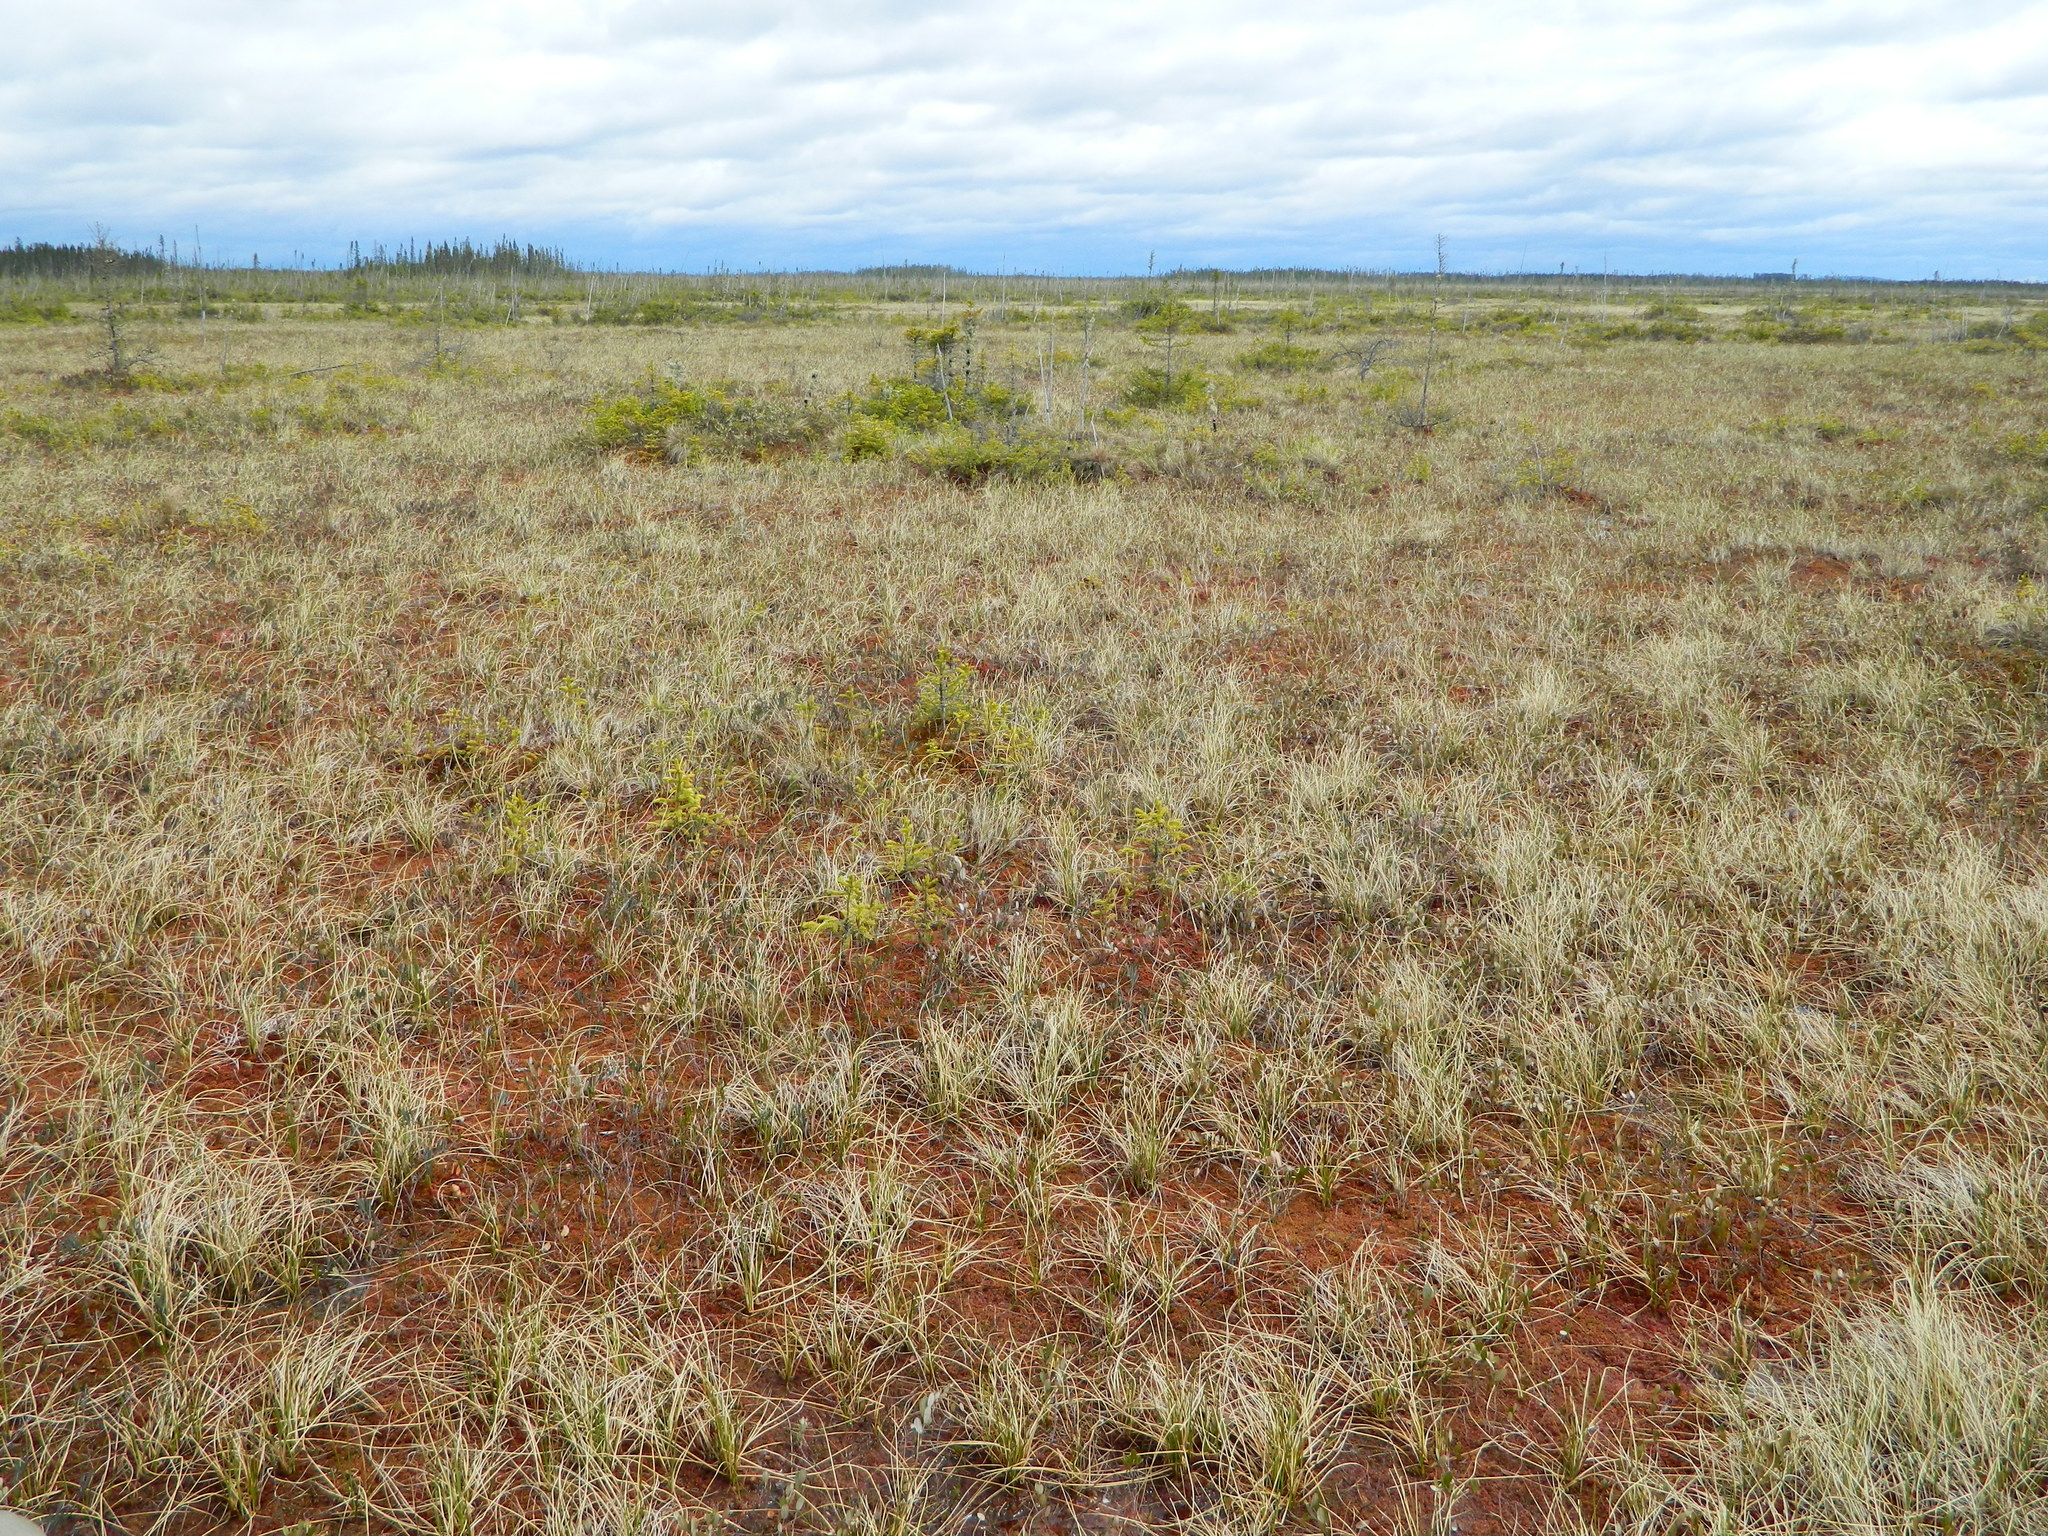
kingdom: Plantae
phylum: Tracheophyta
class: Pinopsida
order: Pinales
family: Pinaceae
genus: Picea
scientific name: Picea mariana
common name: Black spruce
